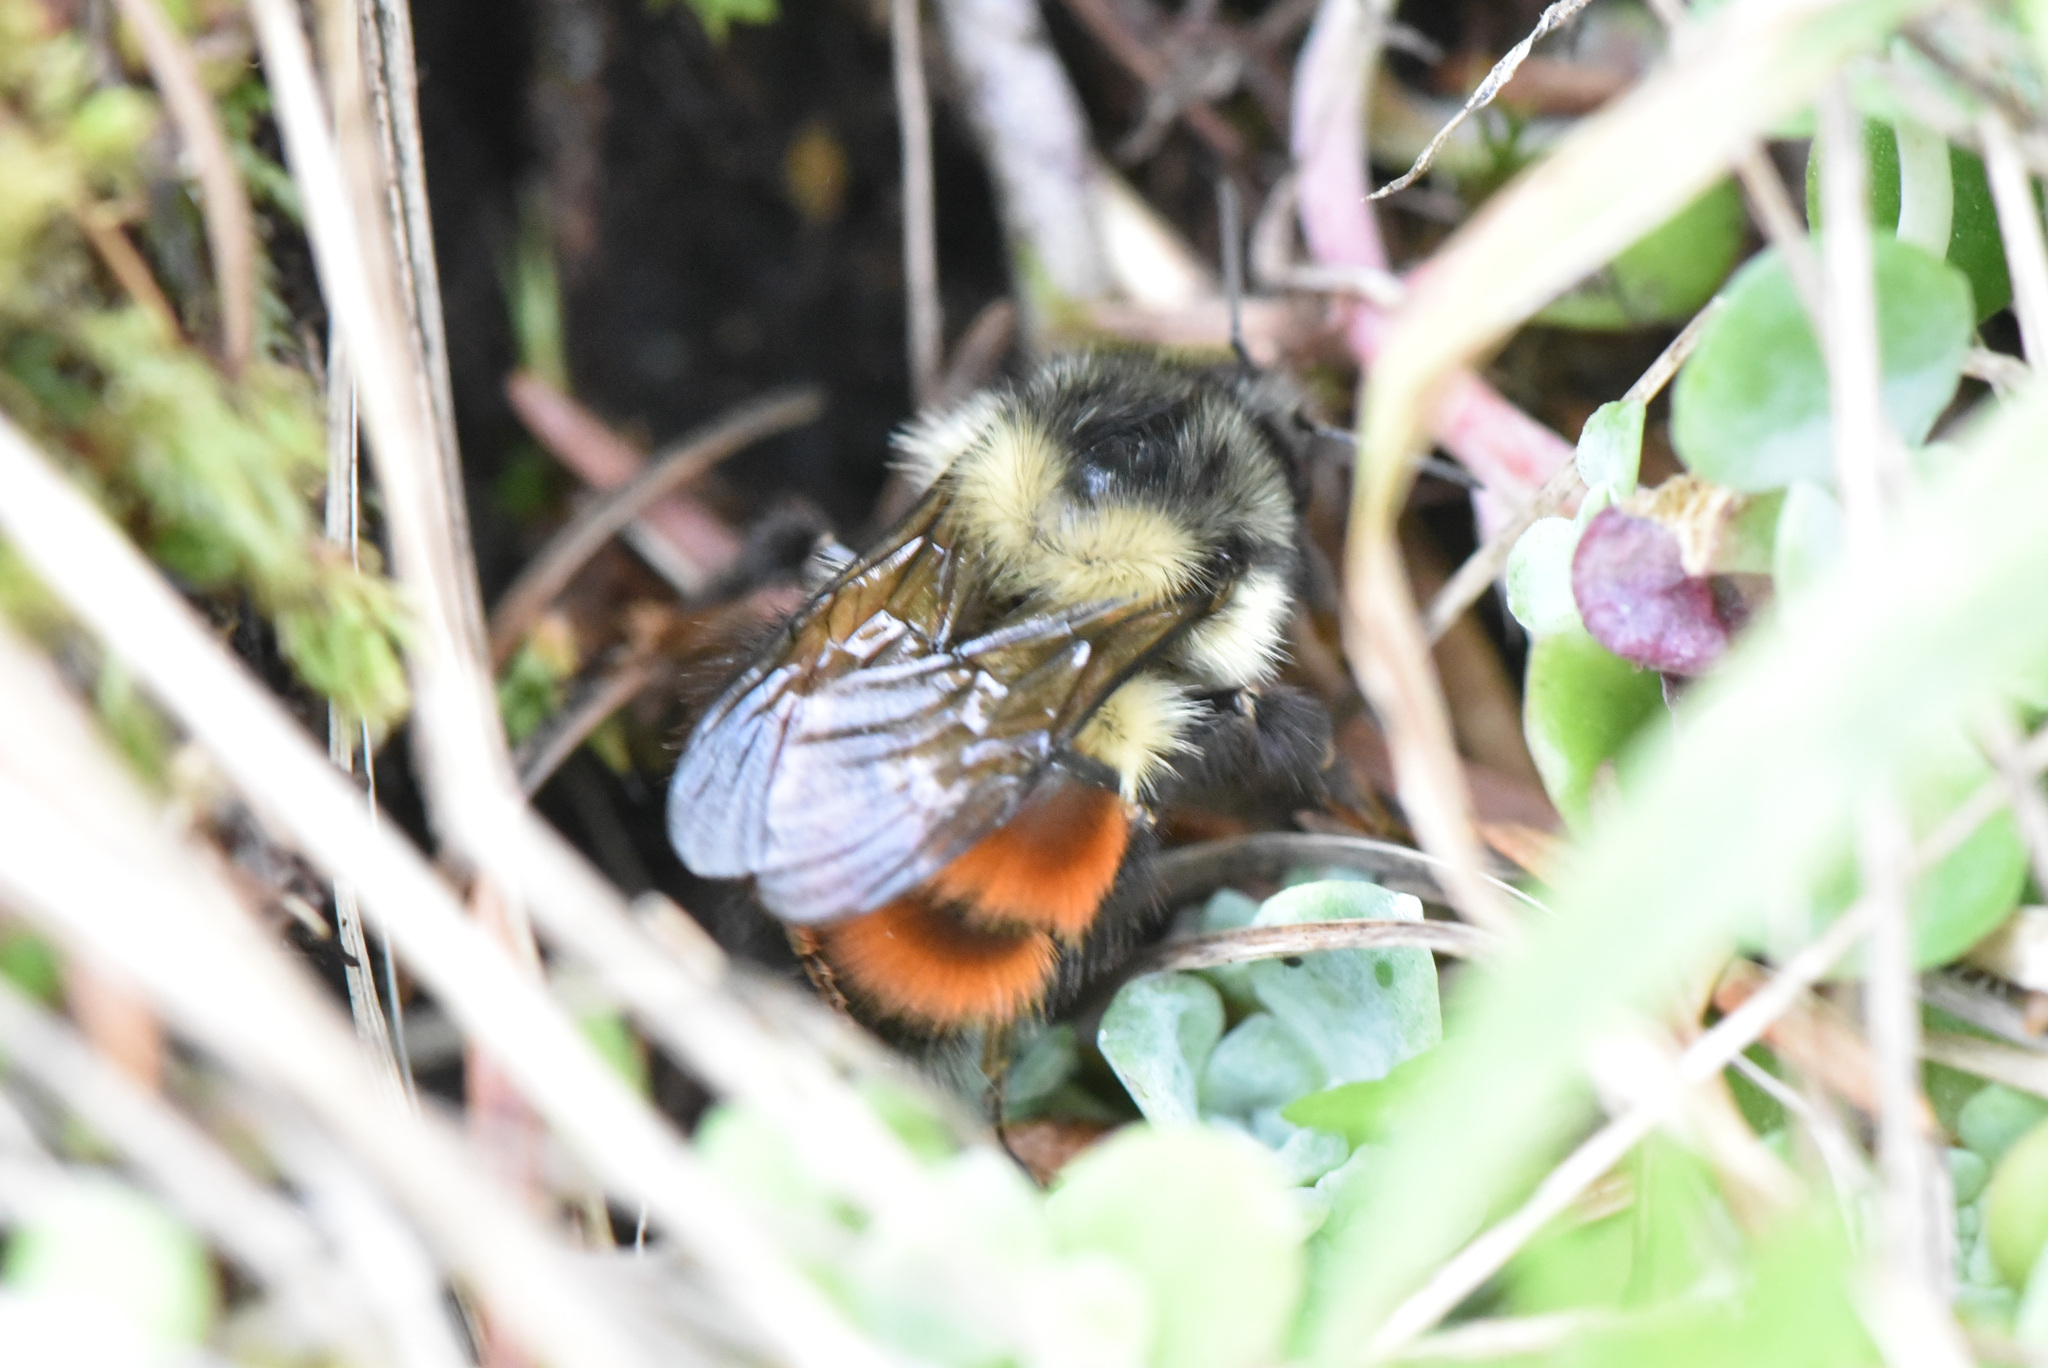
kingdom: Animalia
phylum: Arthropoda
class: Insecta
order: Hymenoptera
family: Apidae
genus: Bombus
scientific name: Bombus melanopygus
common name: Black tail bumble bee
